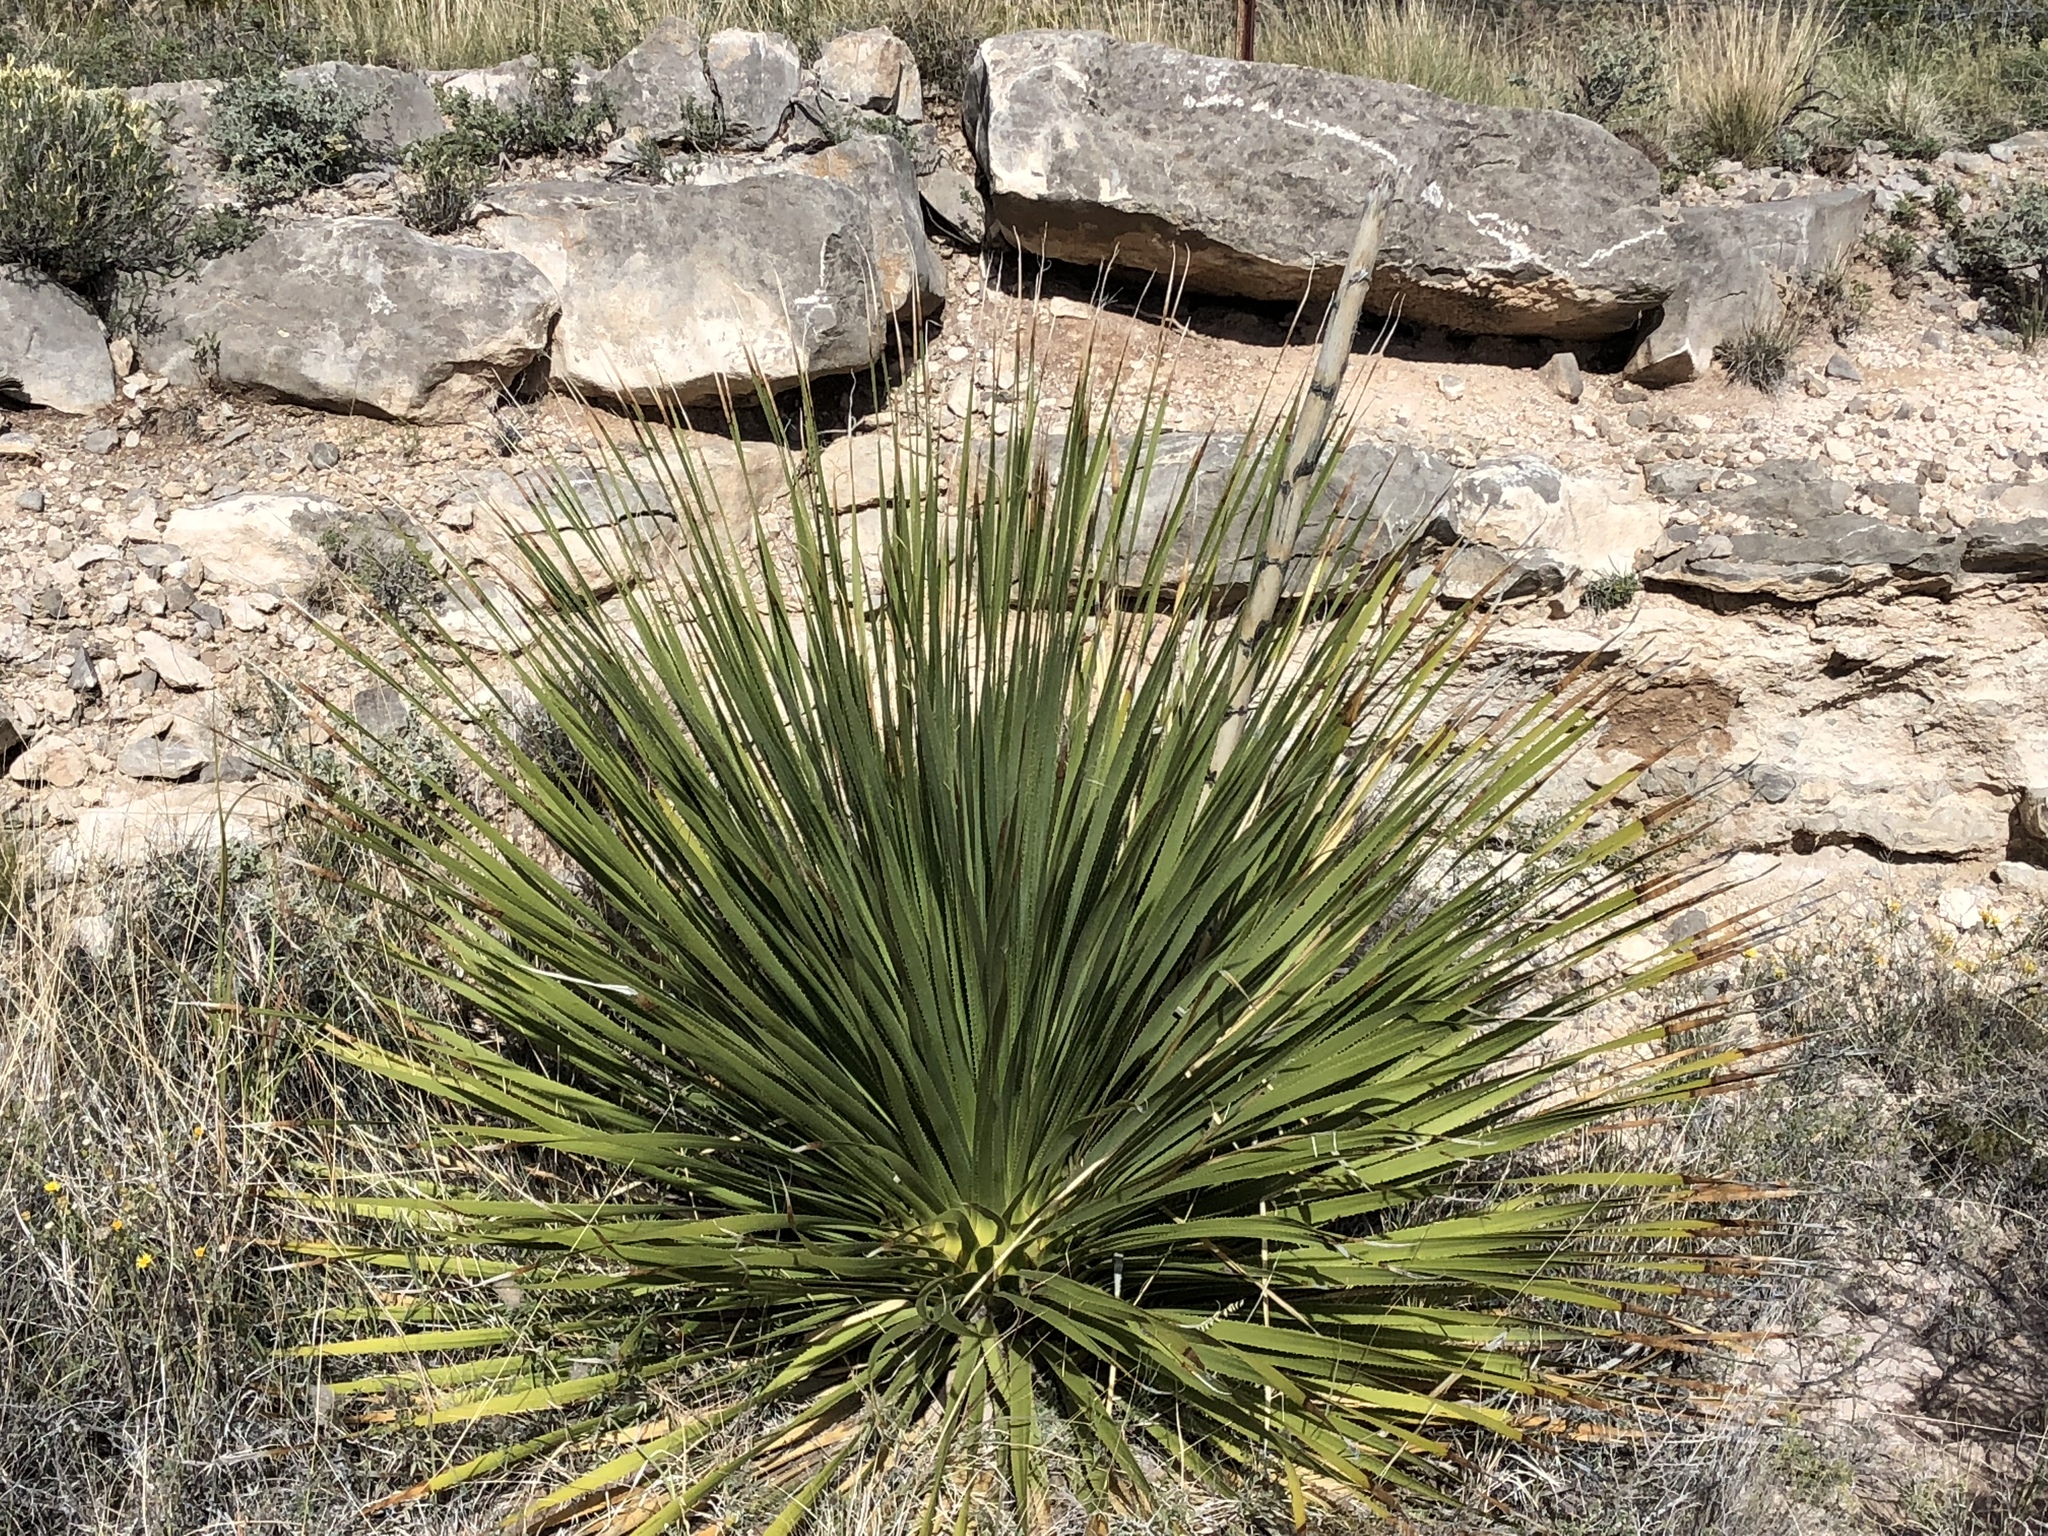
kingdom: Plantae
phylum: Tracheophyta
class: Liliopsida
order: Asparagales
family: Asparagaceae
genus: Dasylirion
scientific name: Dasylirion wheeleri
